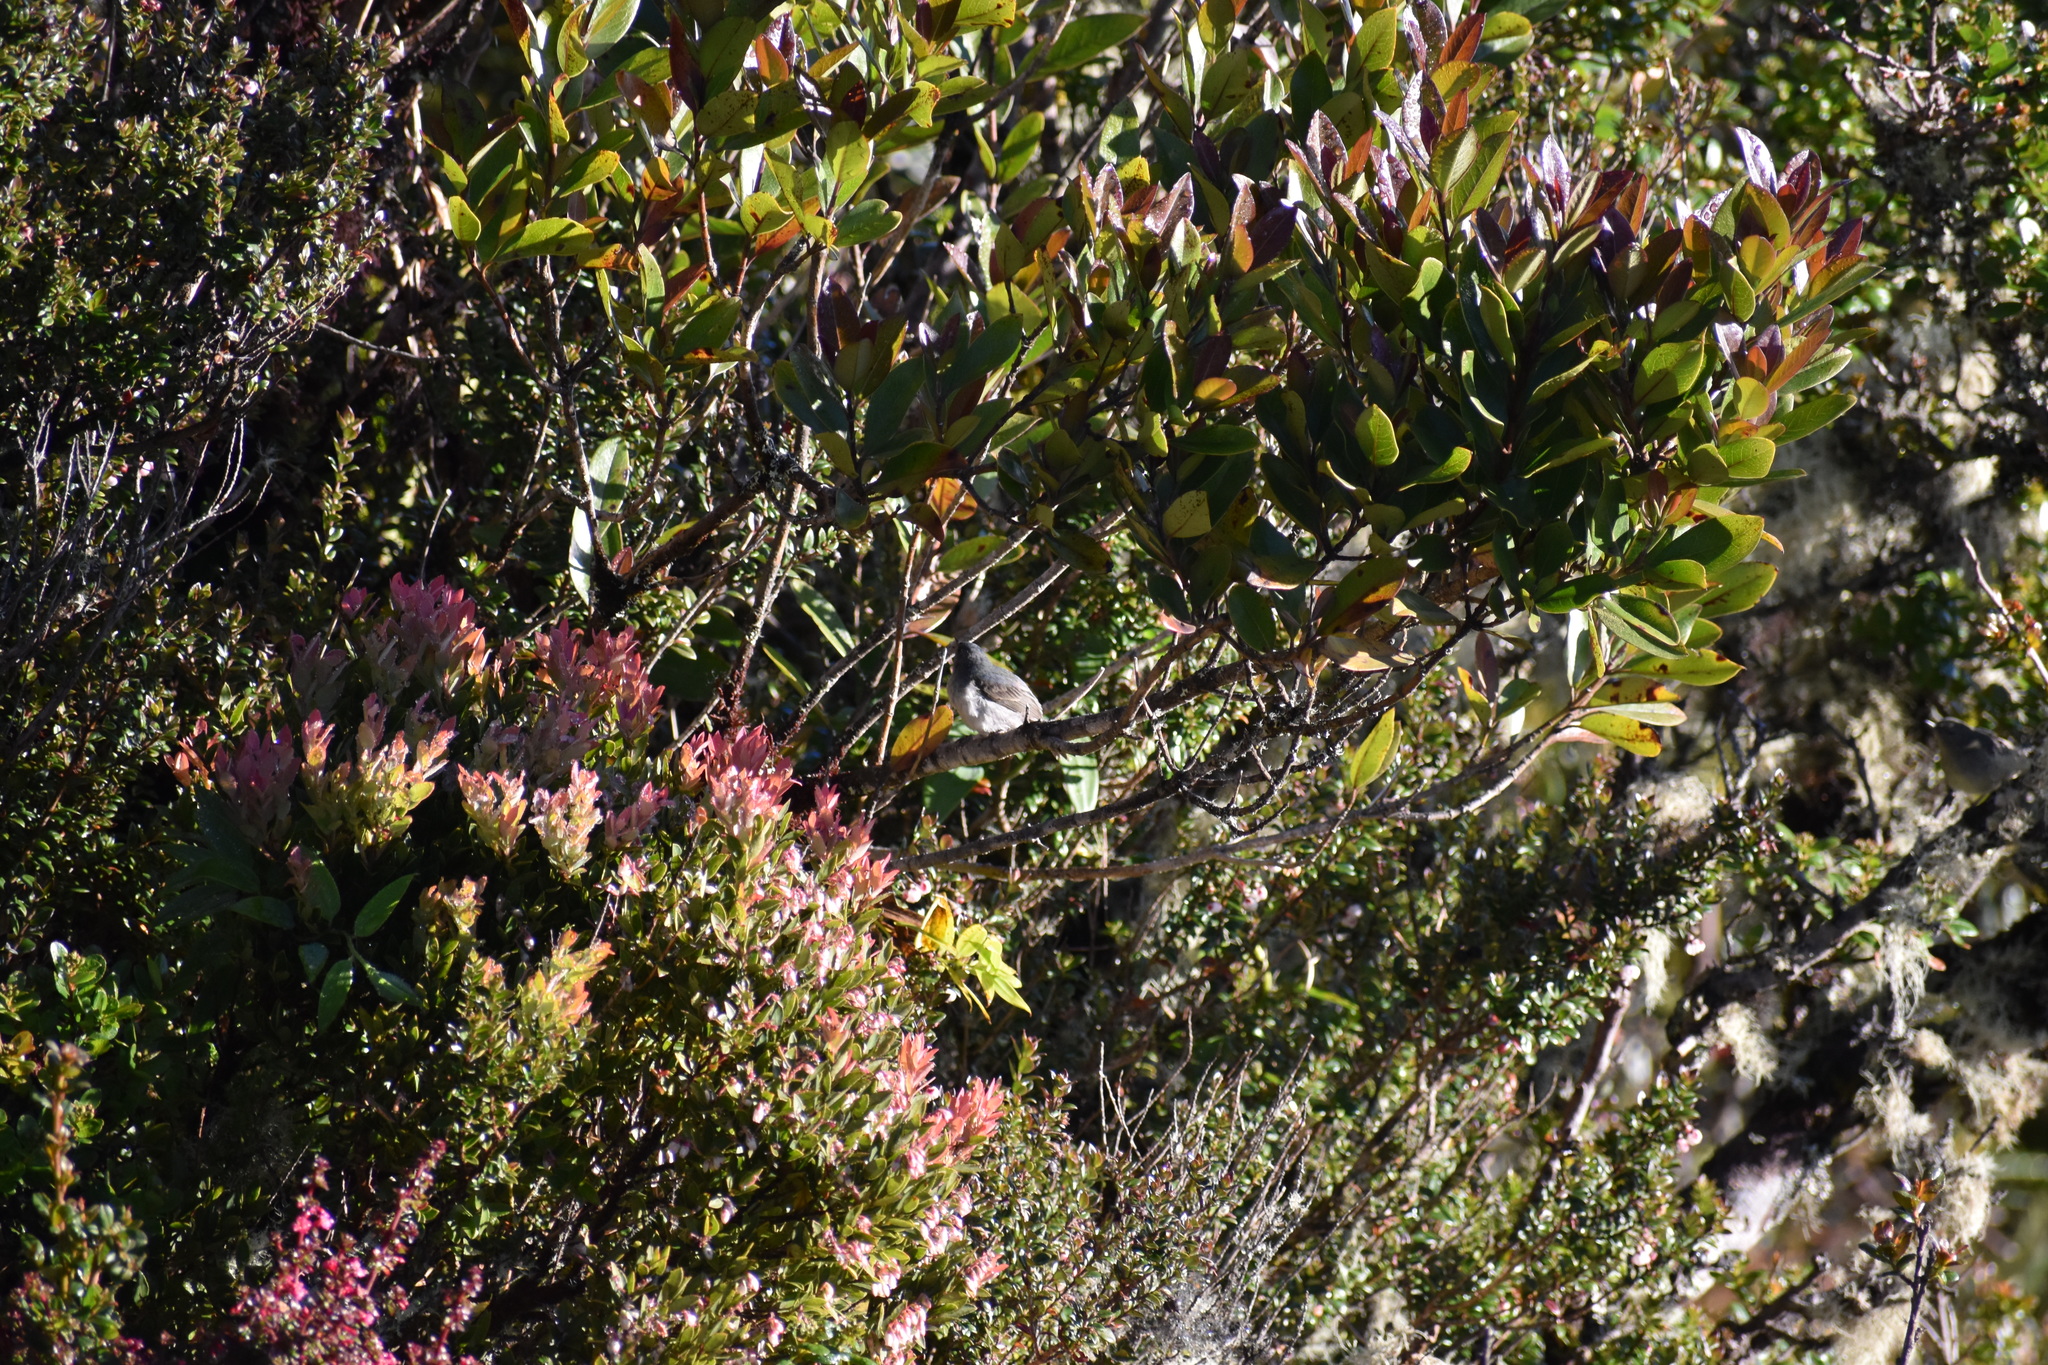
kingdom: Animalia
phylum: Chordata
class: Aves
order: Passeriformes
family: Thraupidae
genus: Diglossa
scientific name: Diglossa plumbea
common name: Slaty flowerpiercer
